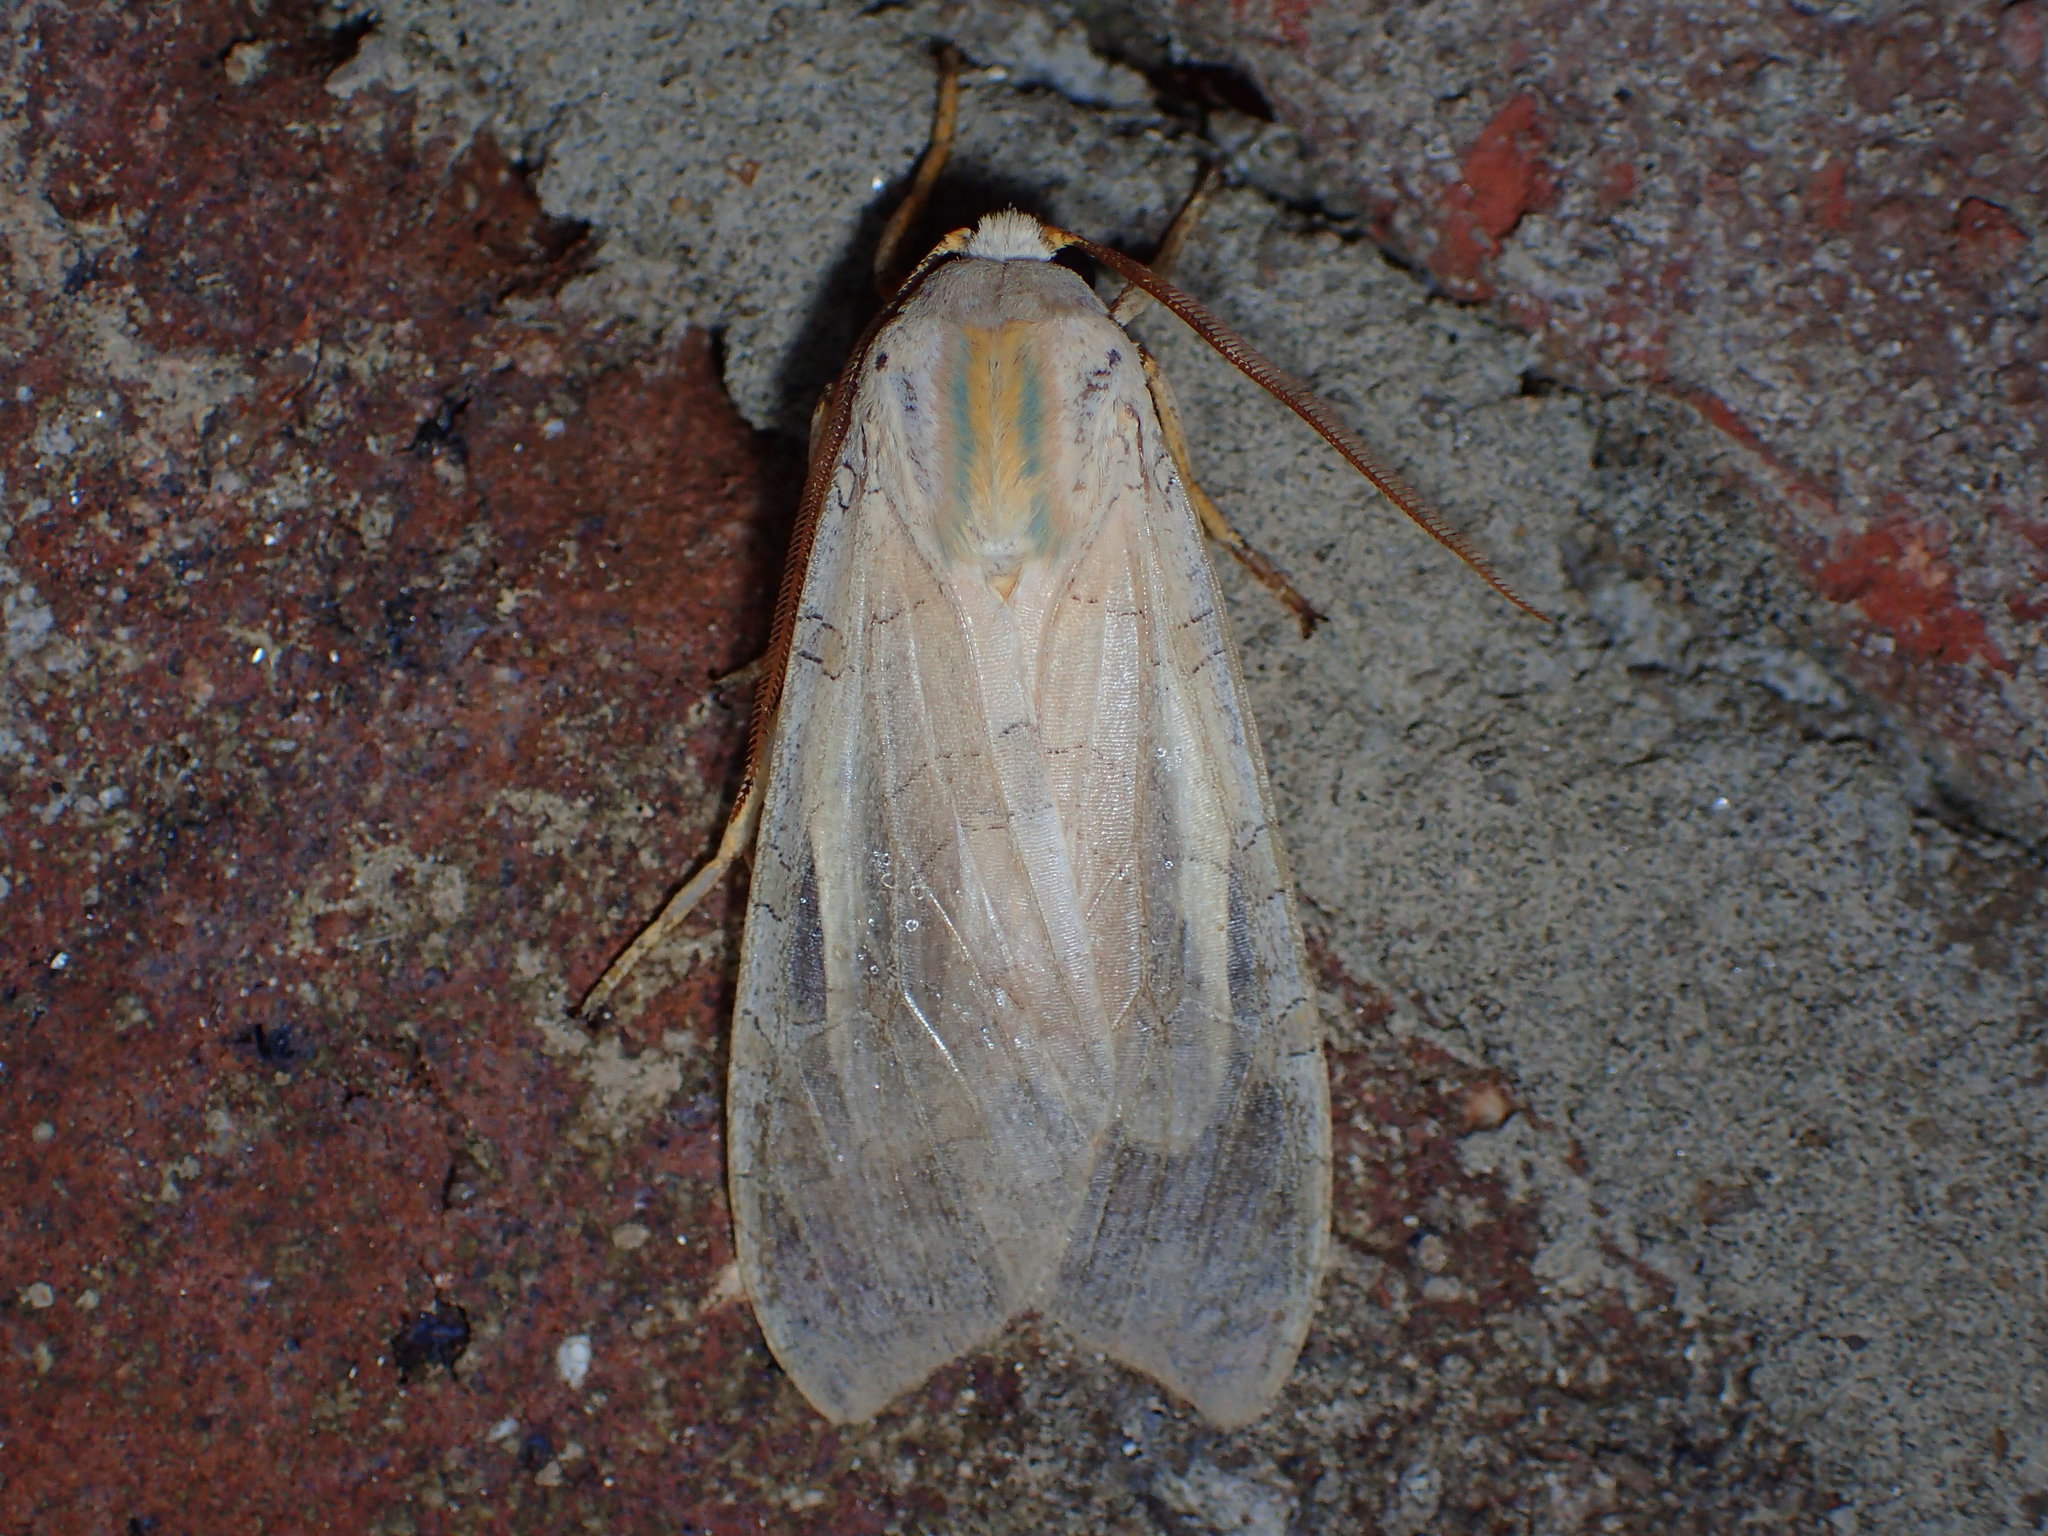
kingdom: Animalia
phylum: Arthropoda
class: Insecta
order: Lepidoptera
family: Erebidae
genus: Halysidota
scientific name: Halysidota
